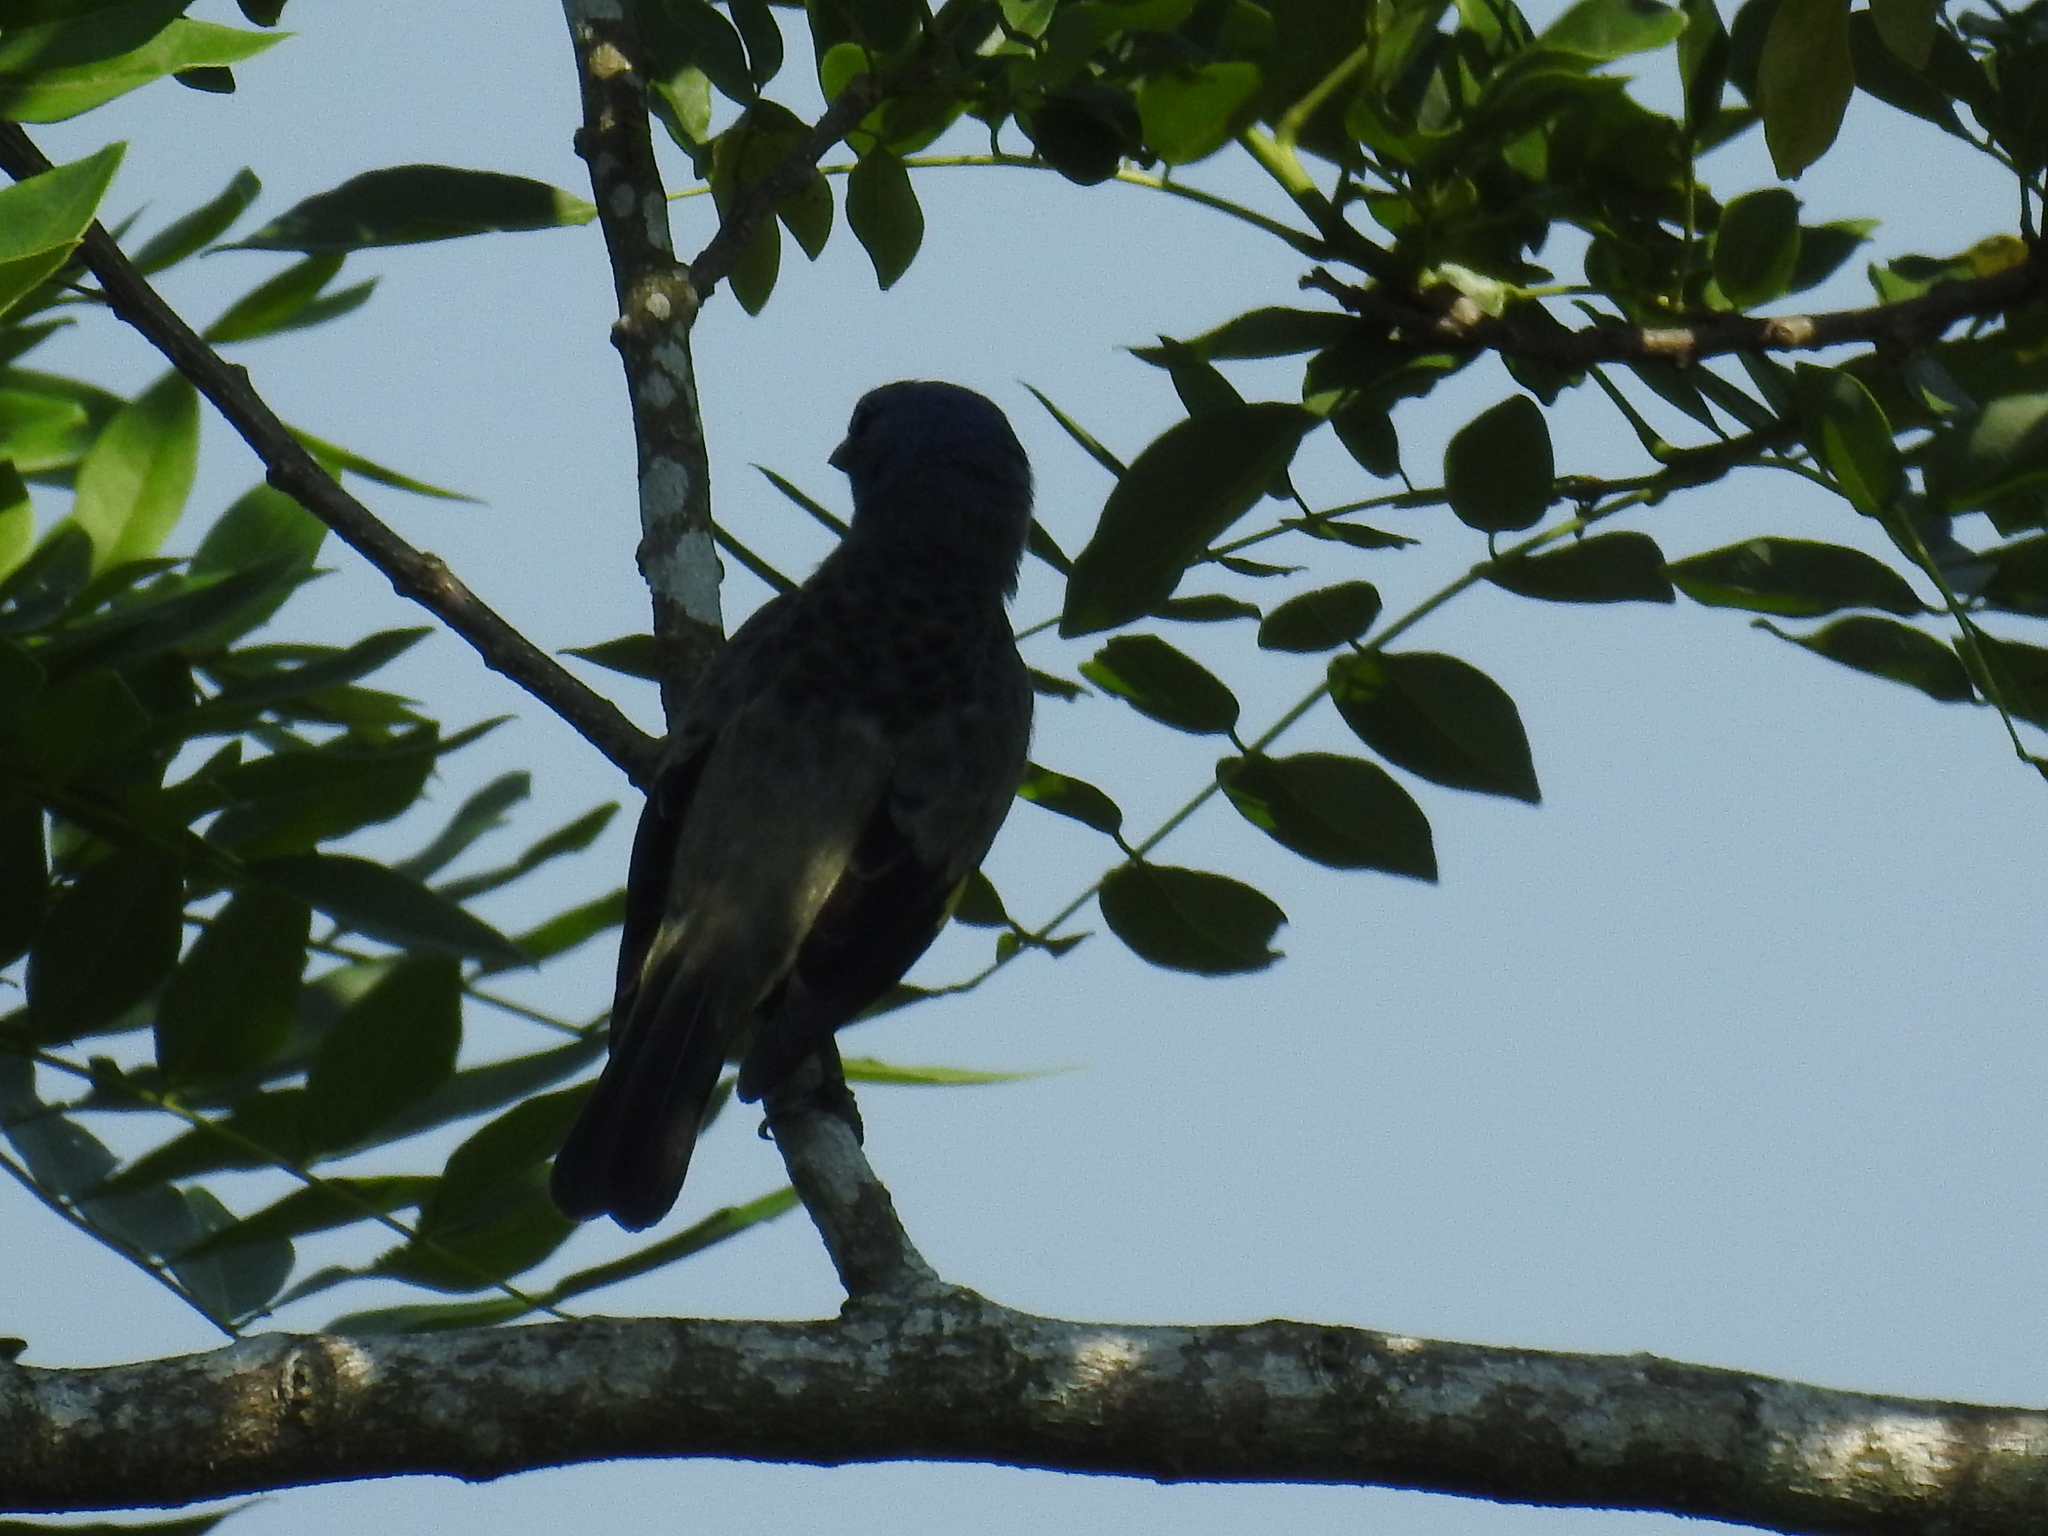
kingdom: Animalia
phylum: Chordata
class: Aves
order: Passeriformes
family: Thraupidae
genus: Thraupis
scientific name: Thraupis abbas
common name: Yellow-winged tanager
